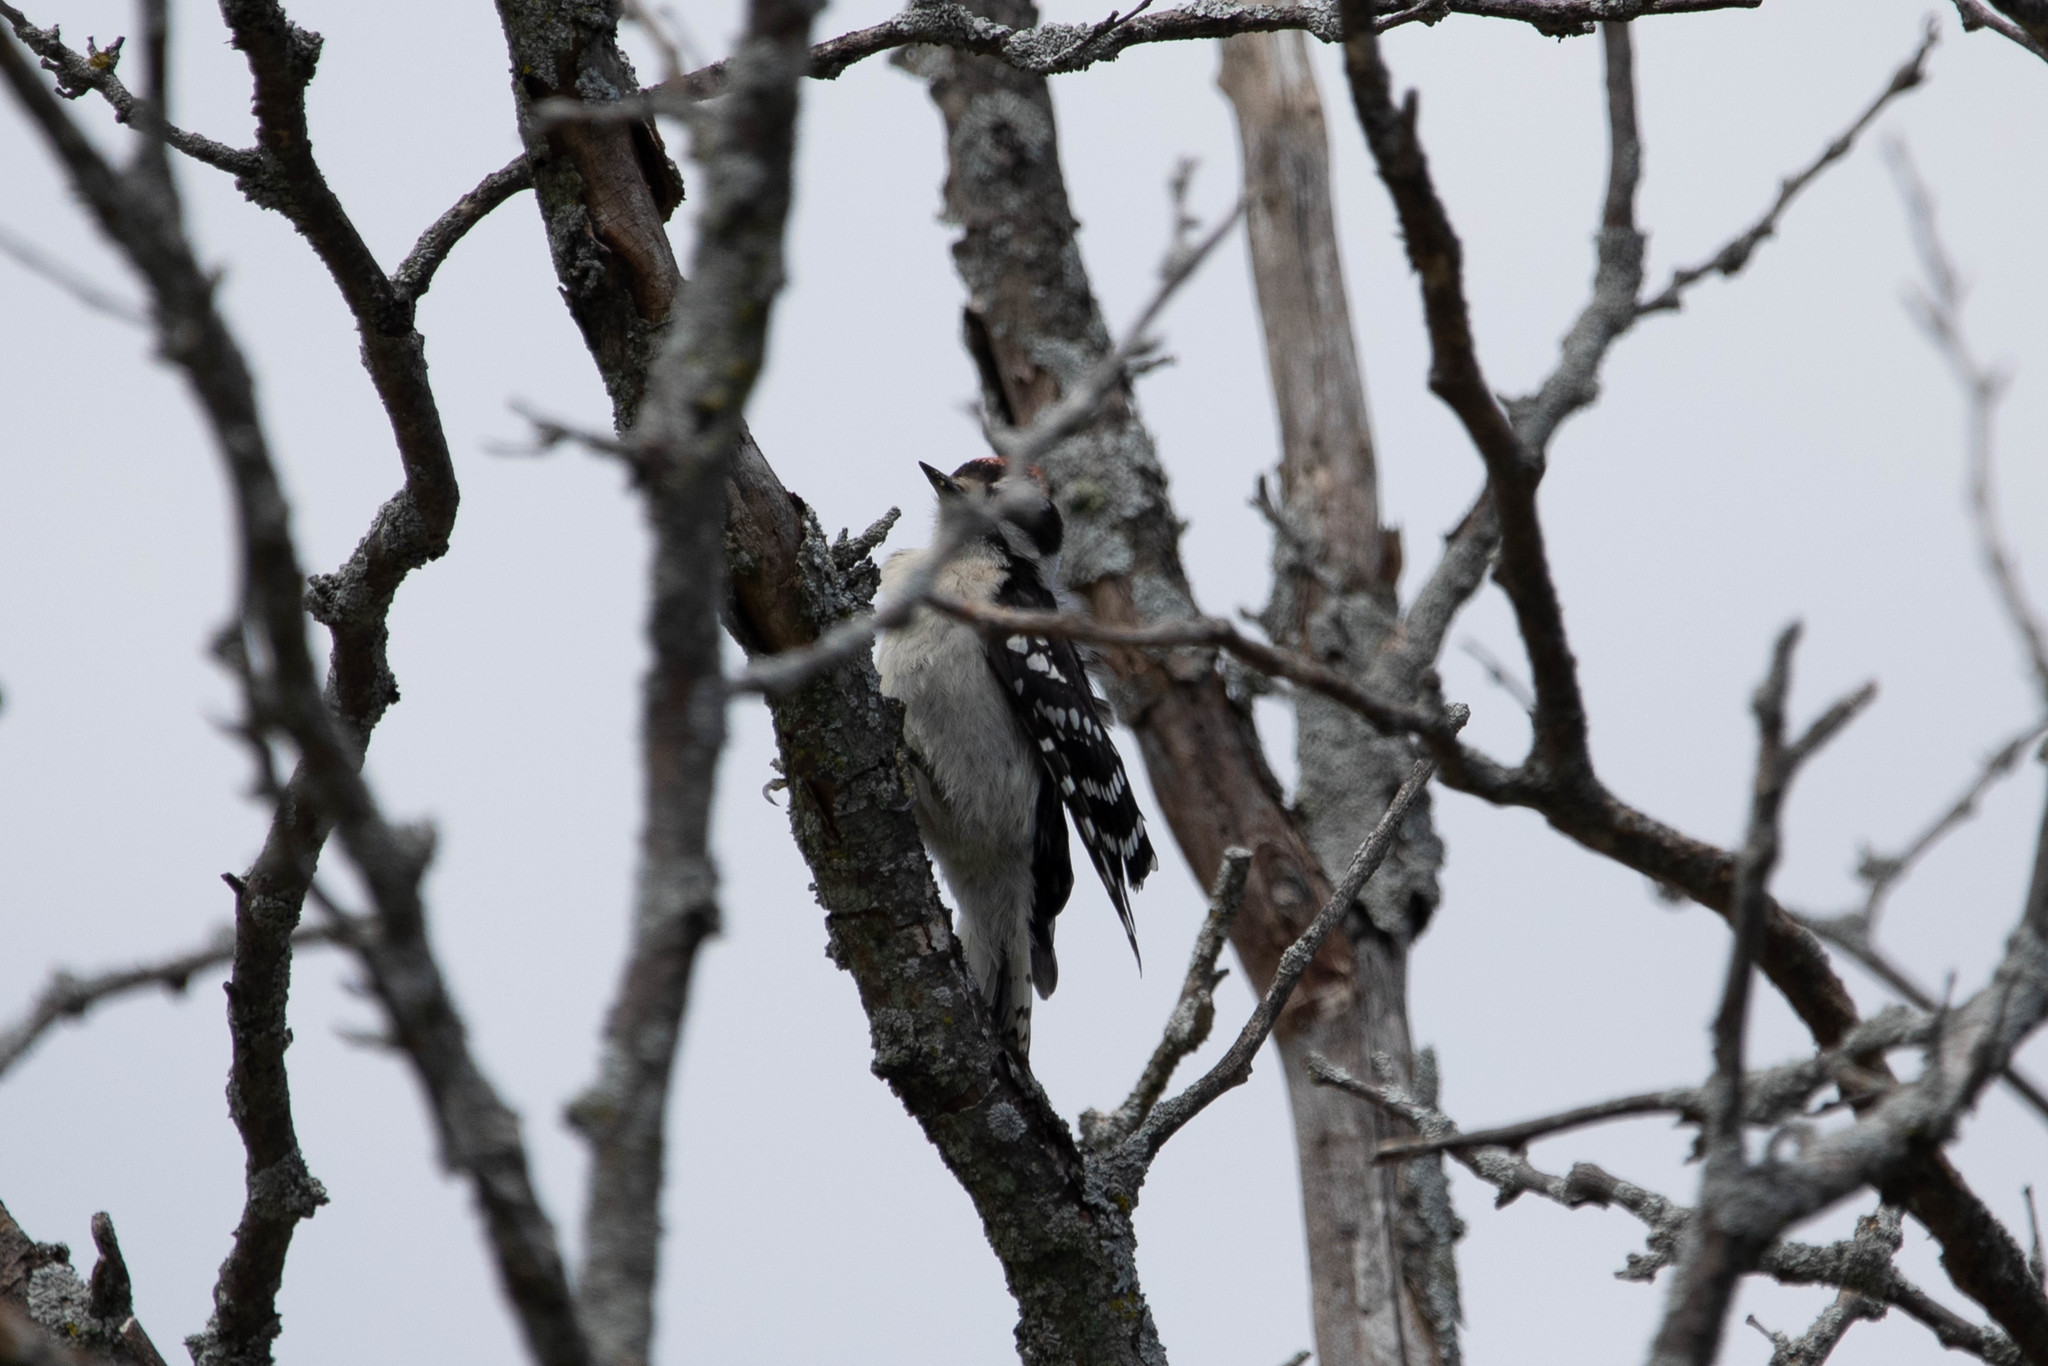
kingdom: Animalia
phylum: Chordata
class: Aves
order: Piciformes
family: Picidae
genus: Dryobates
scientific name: Dryobates pubescens
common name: Downy woodpecker
